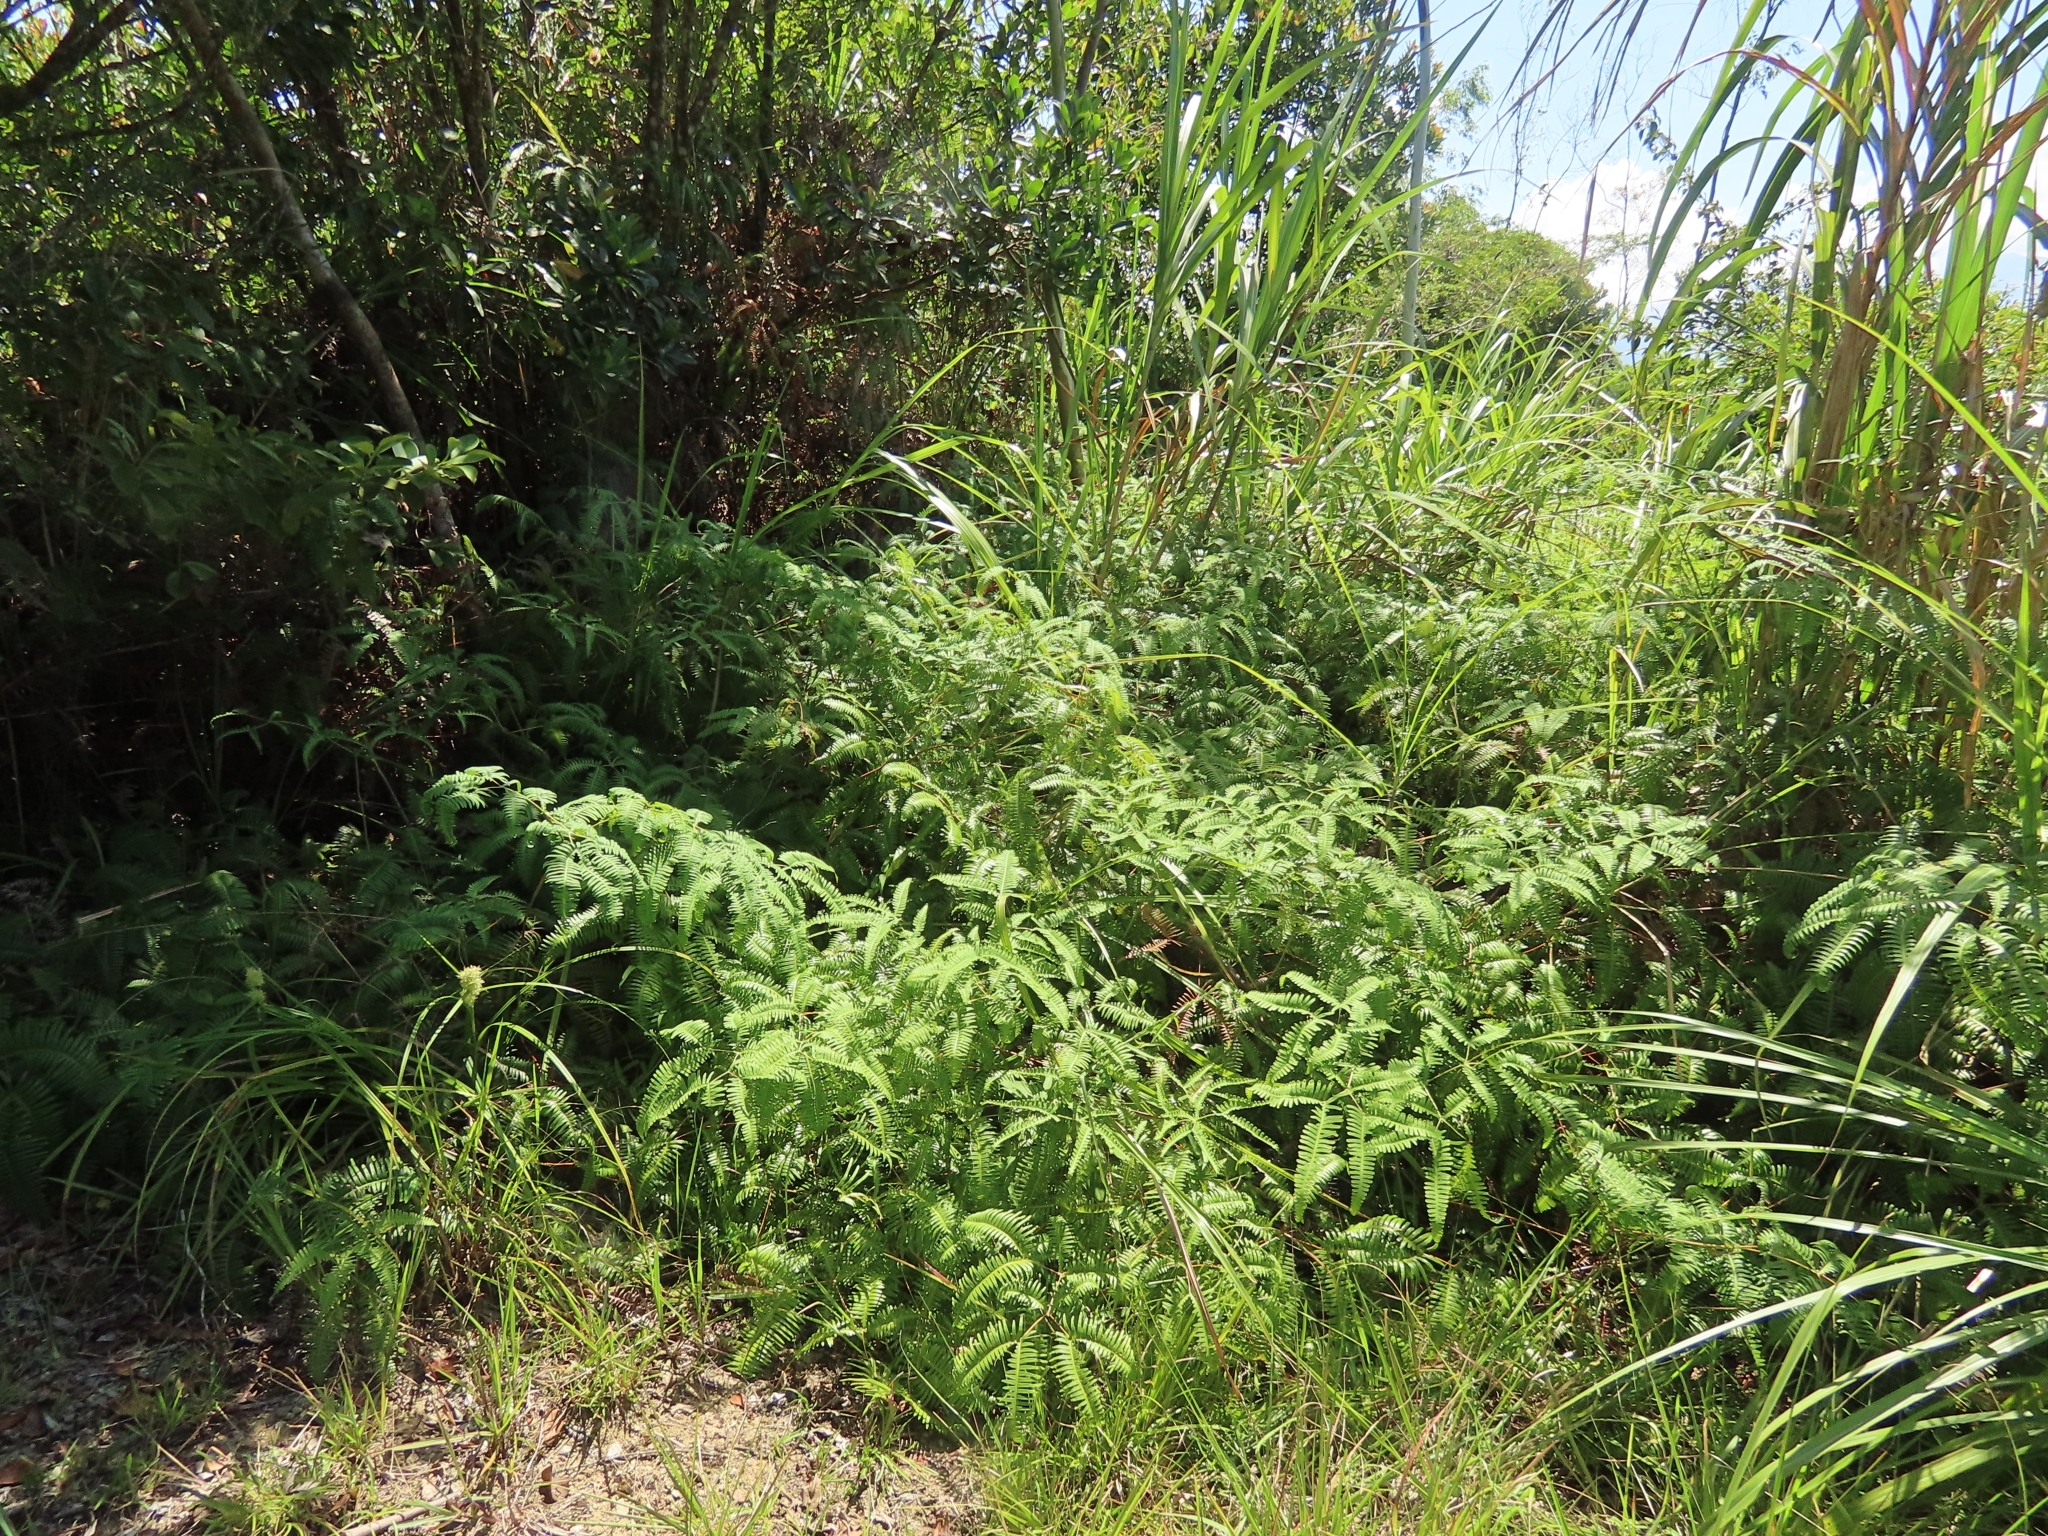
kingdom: Plantae
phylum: Tracheophyta
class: Polypodiopsida
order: Gleicheniales
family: Gleicheniaceae
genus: Dicranopteris
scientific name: Dicranopteris
